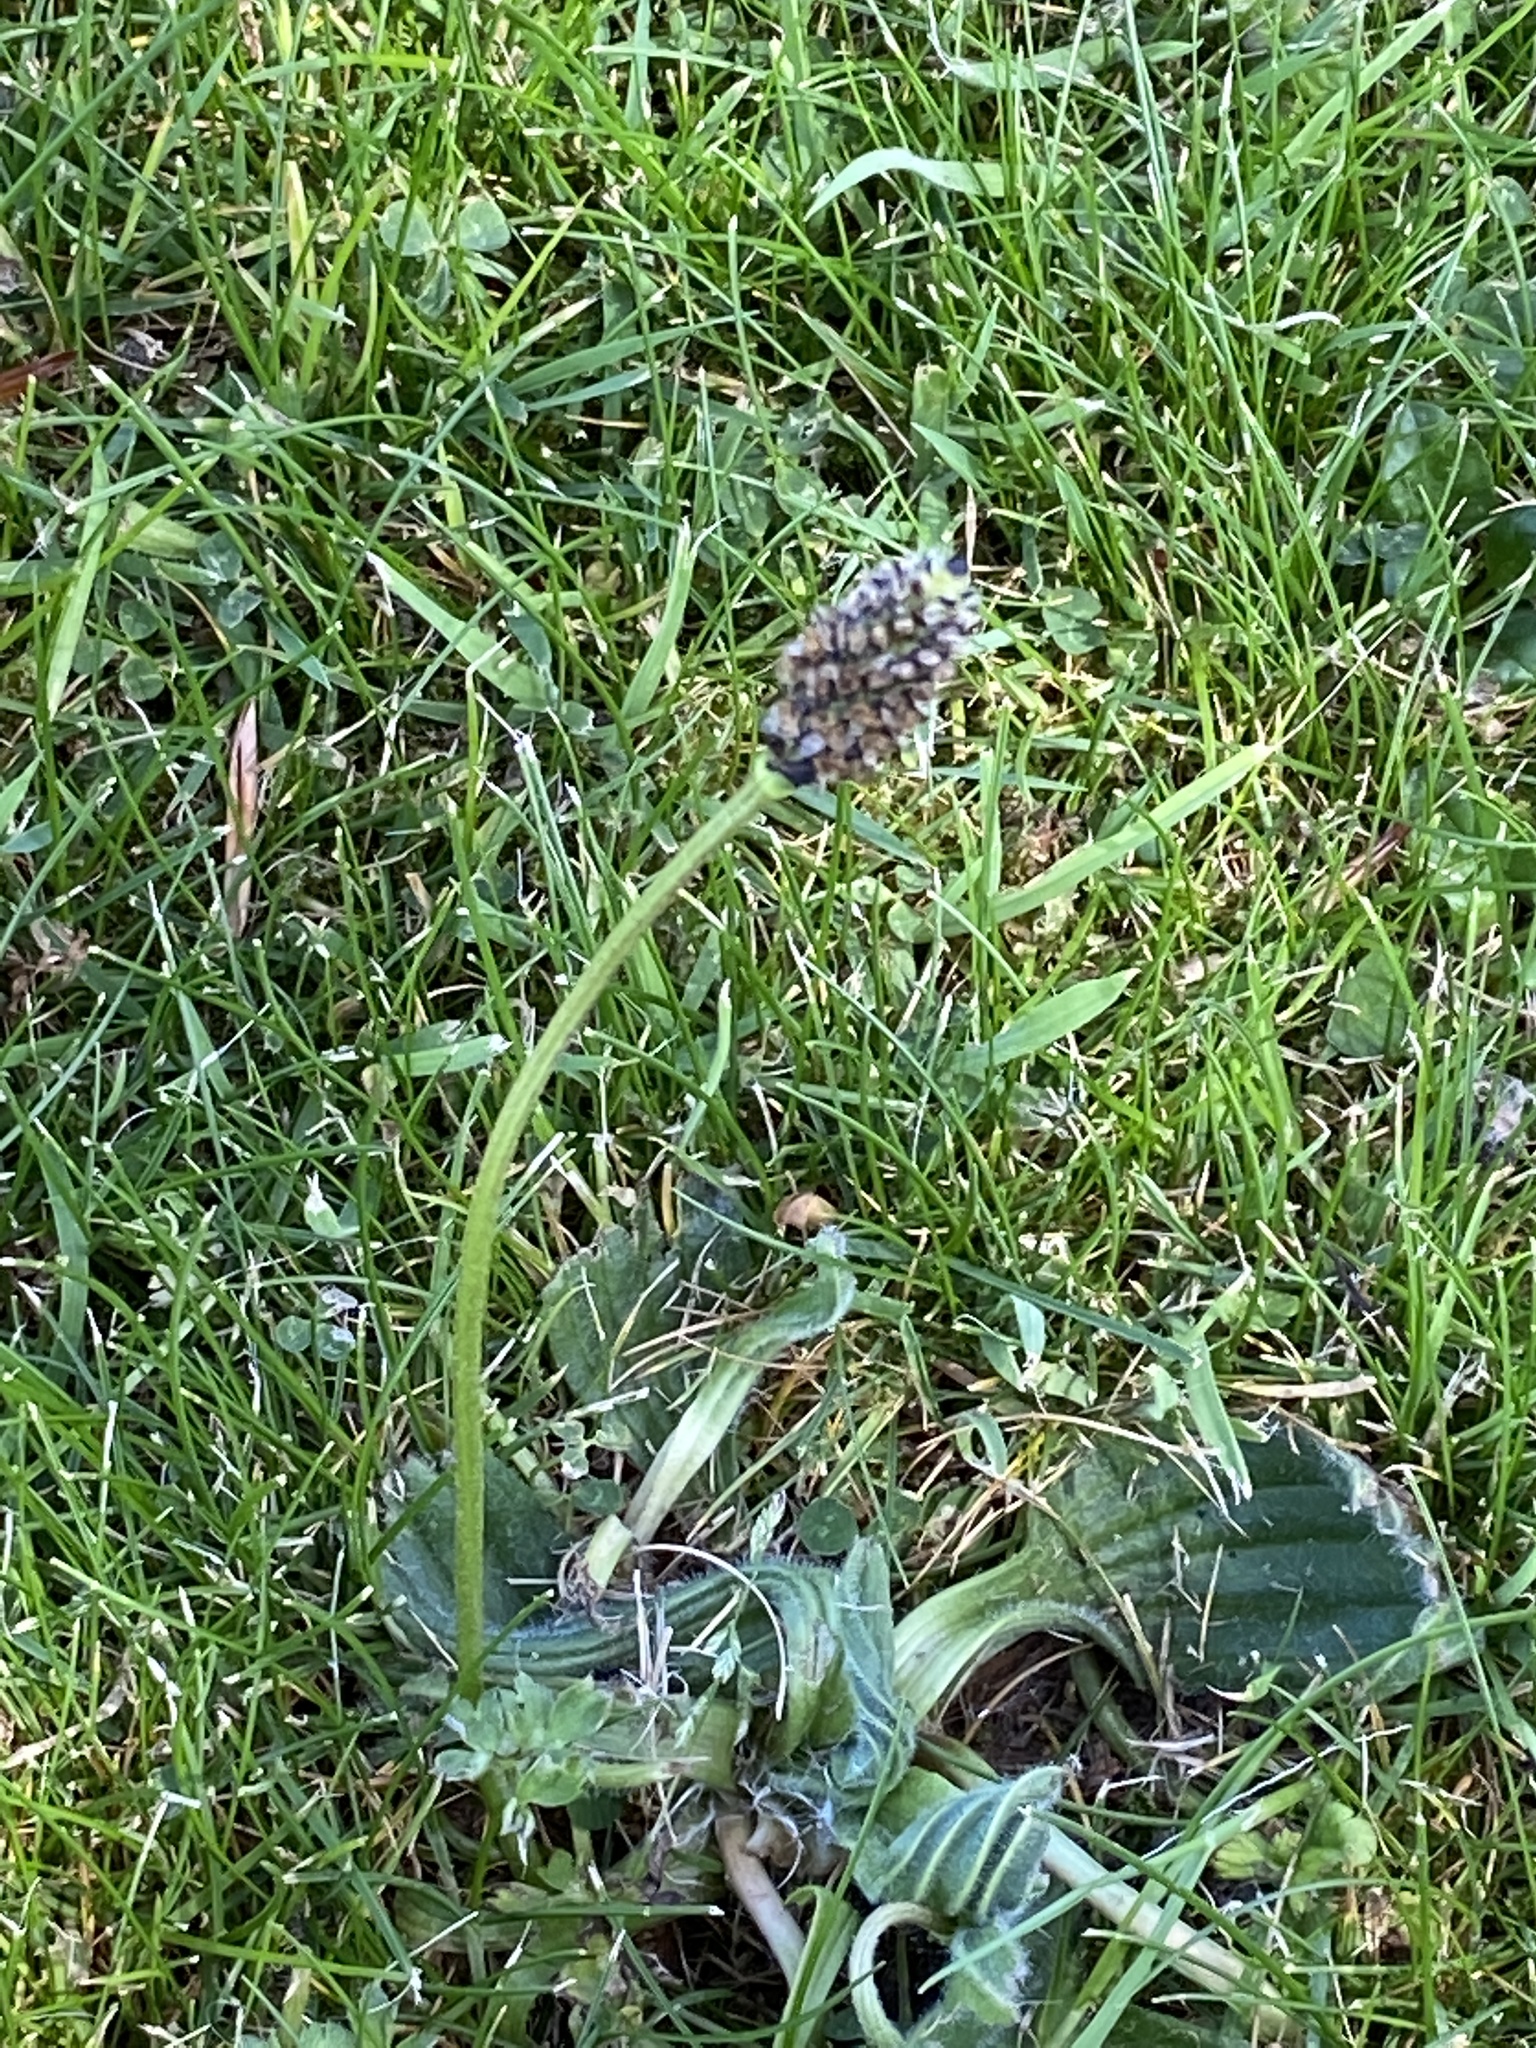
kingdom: Plantae
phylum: Tracheophyta
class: Magnoliopsida
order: Lamiales
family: Plantaginaceae
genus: Plantago
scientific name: Plantago lanceolata
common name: Ribwort plantain
